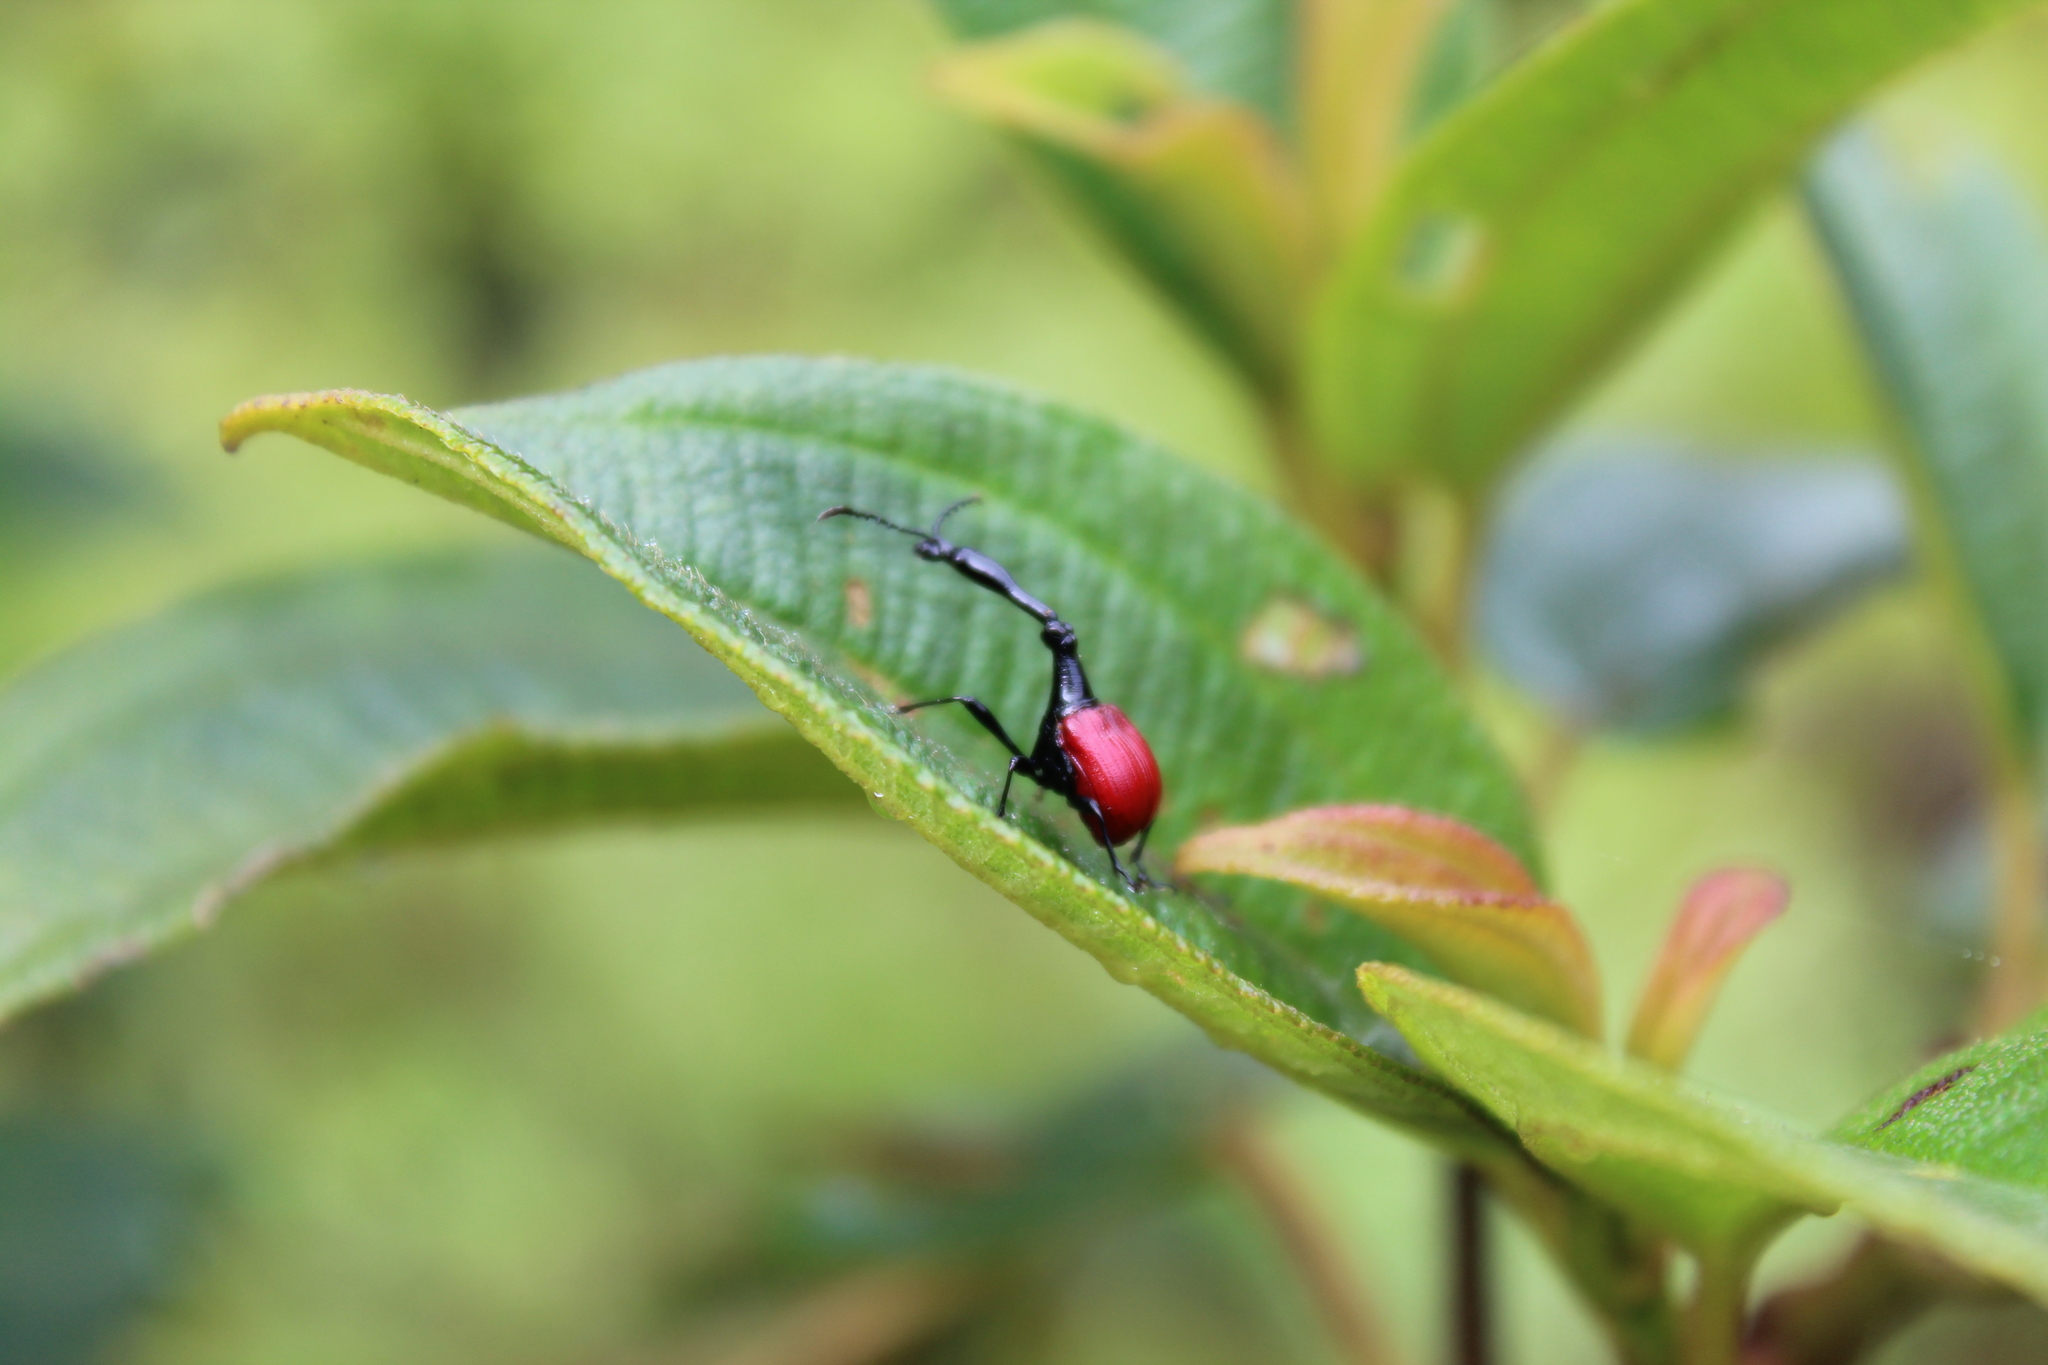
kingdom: Animalia
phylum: Arthropoda
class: Insecta
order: Coleoptera
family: Attelabidae
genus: Trachelophorus
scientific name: Trachelophorus giraffa
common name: Giraffe weevil
